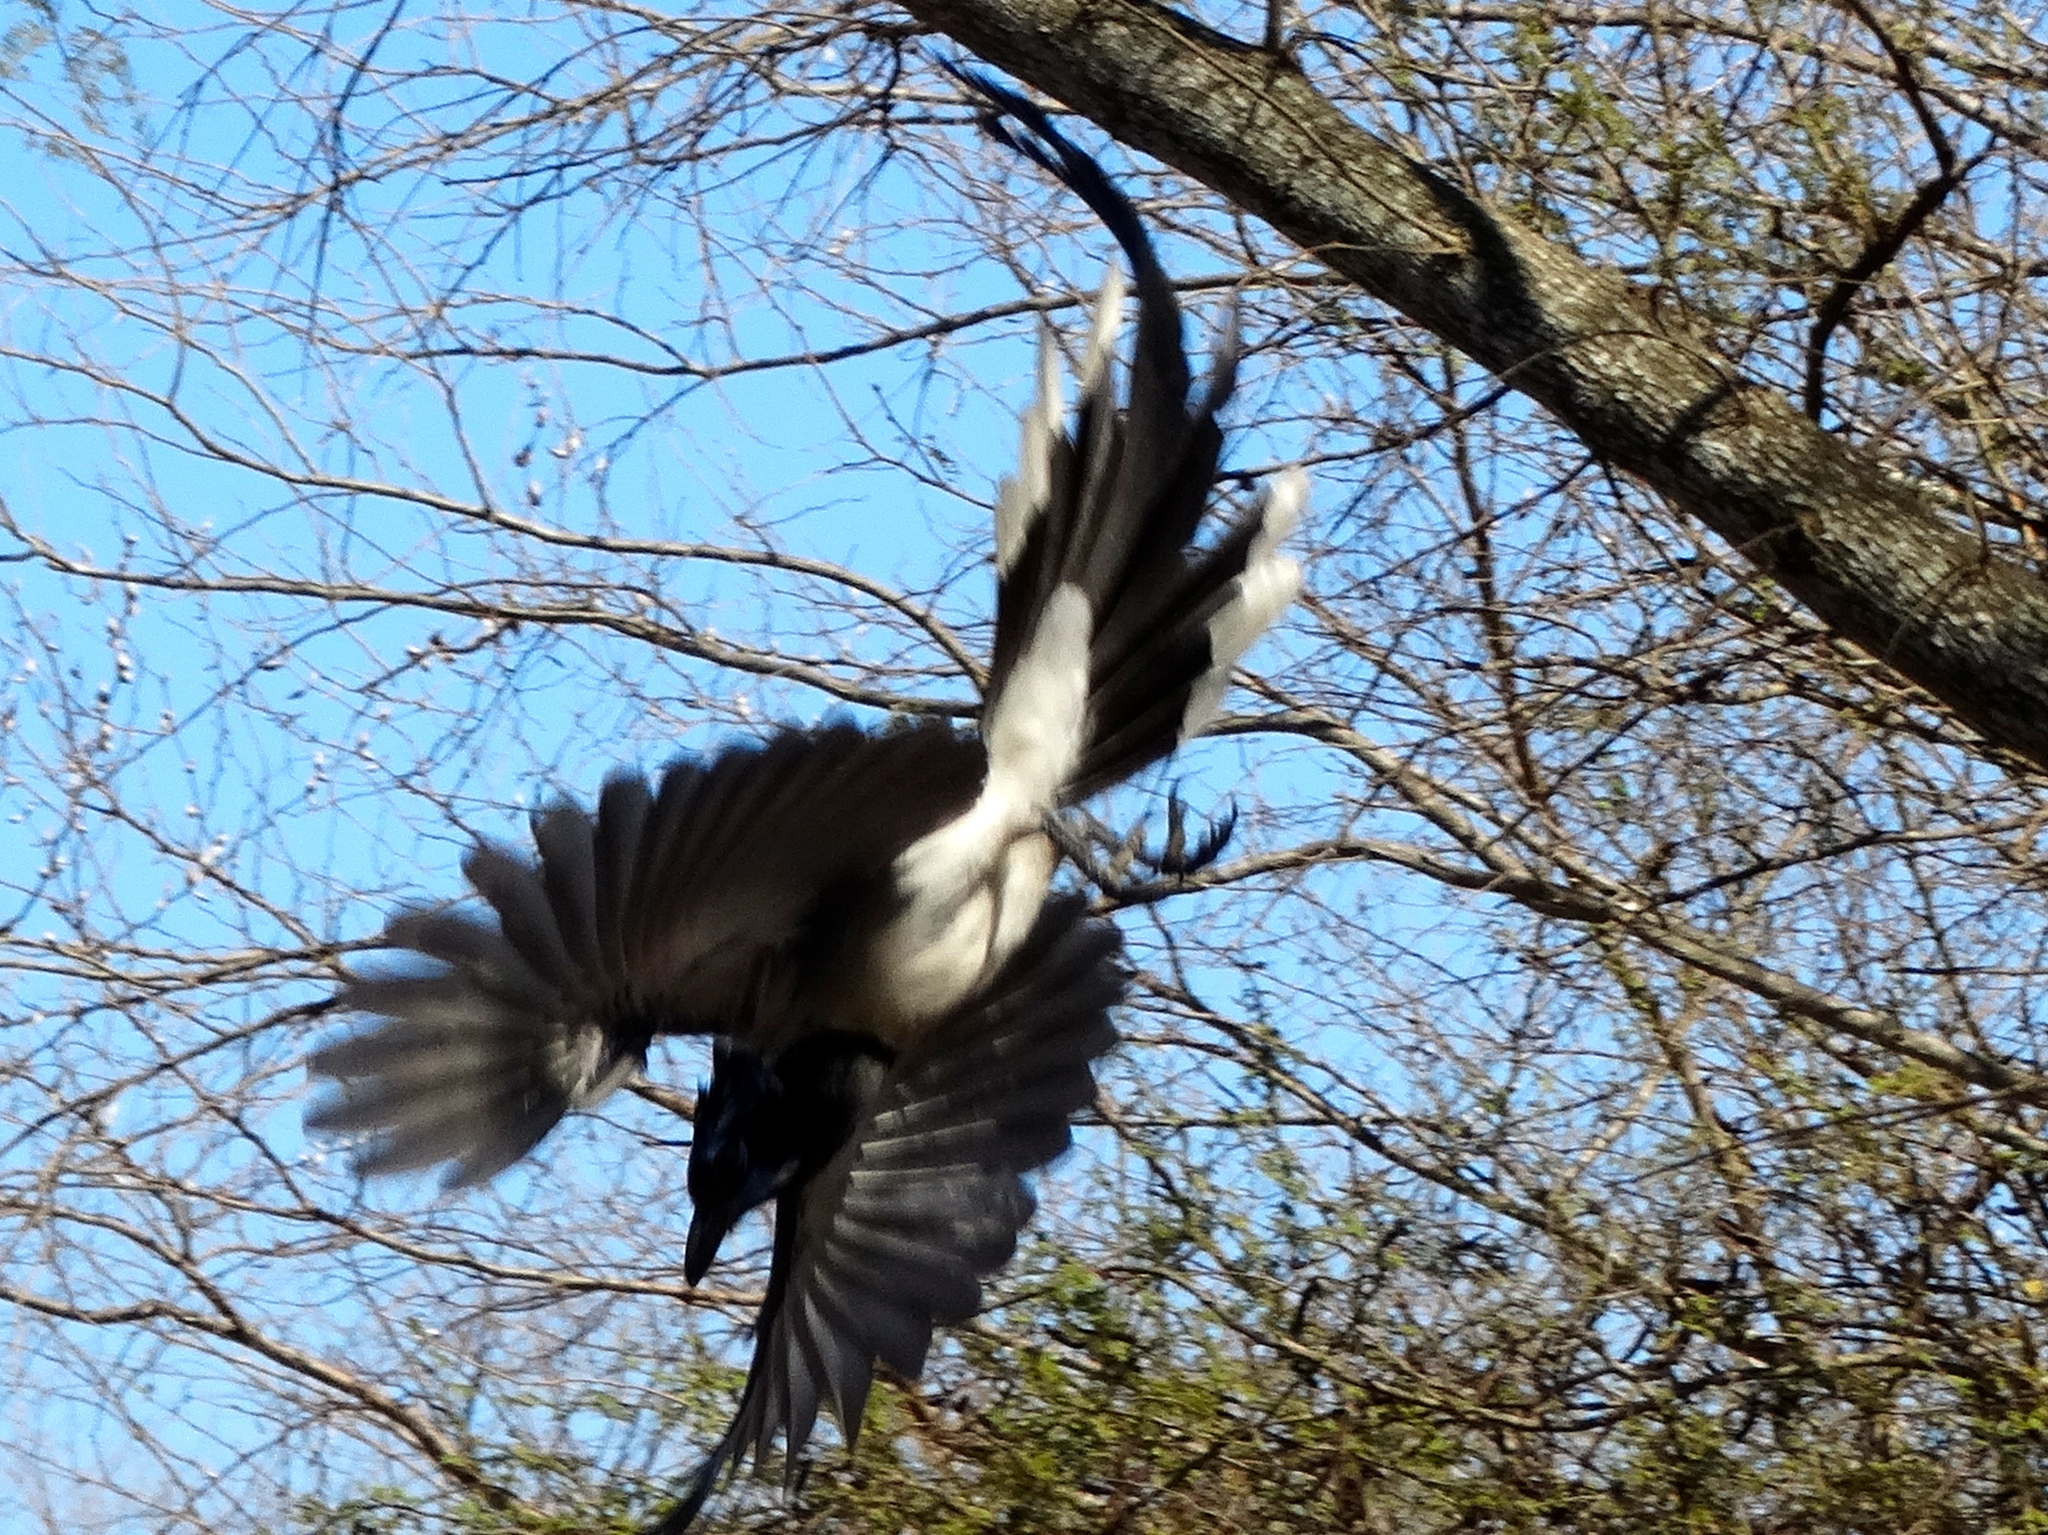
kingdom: Animalia
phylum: Chordata
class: Aves
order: Passeriformes
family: Corvidae
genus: Calocitta
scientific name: Calocitta colliei
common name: Black-throated magpie-jay
